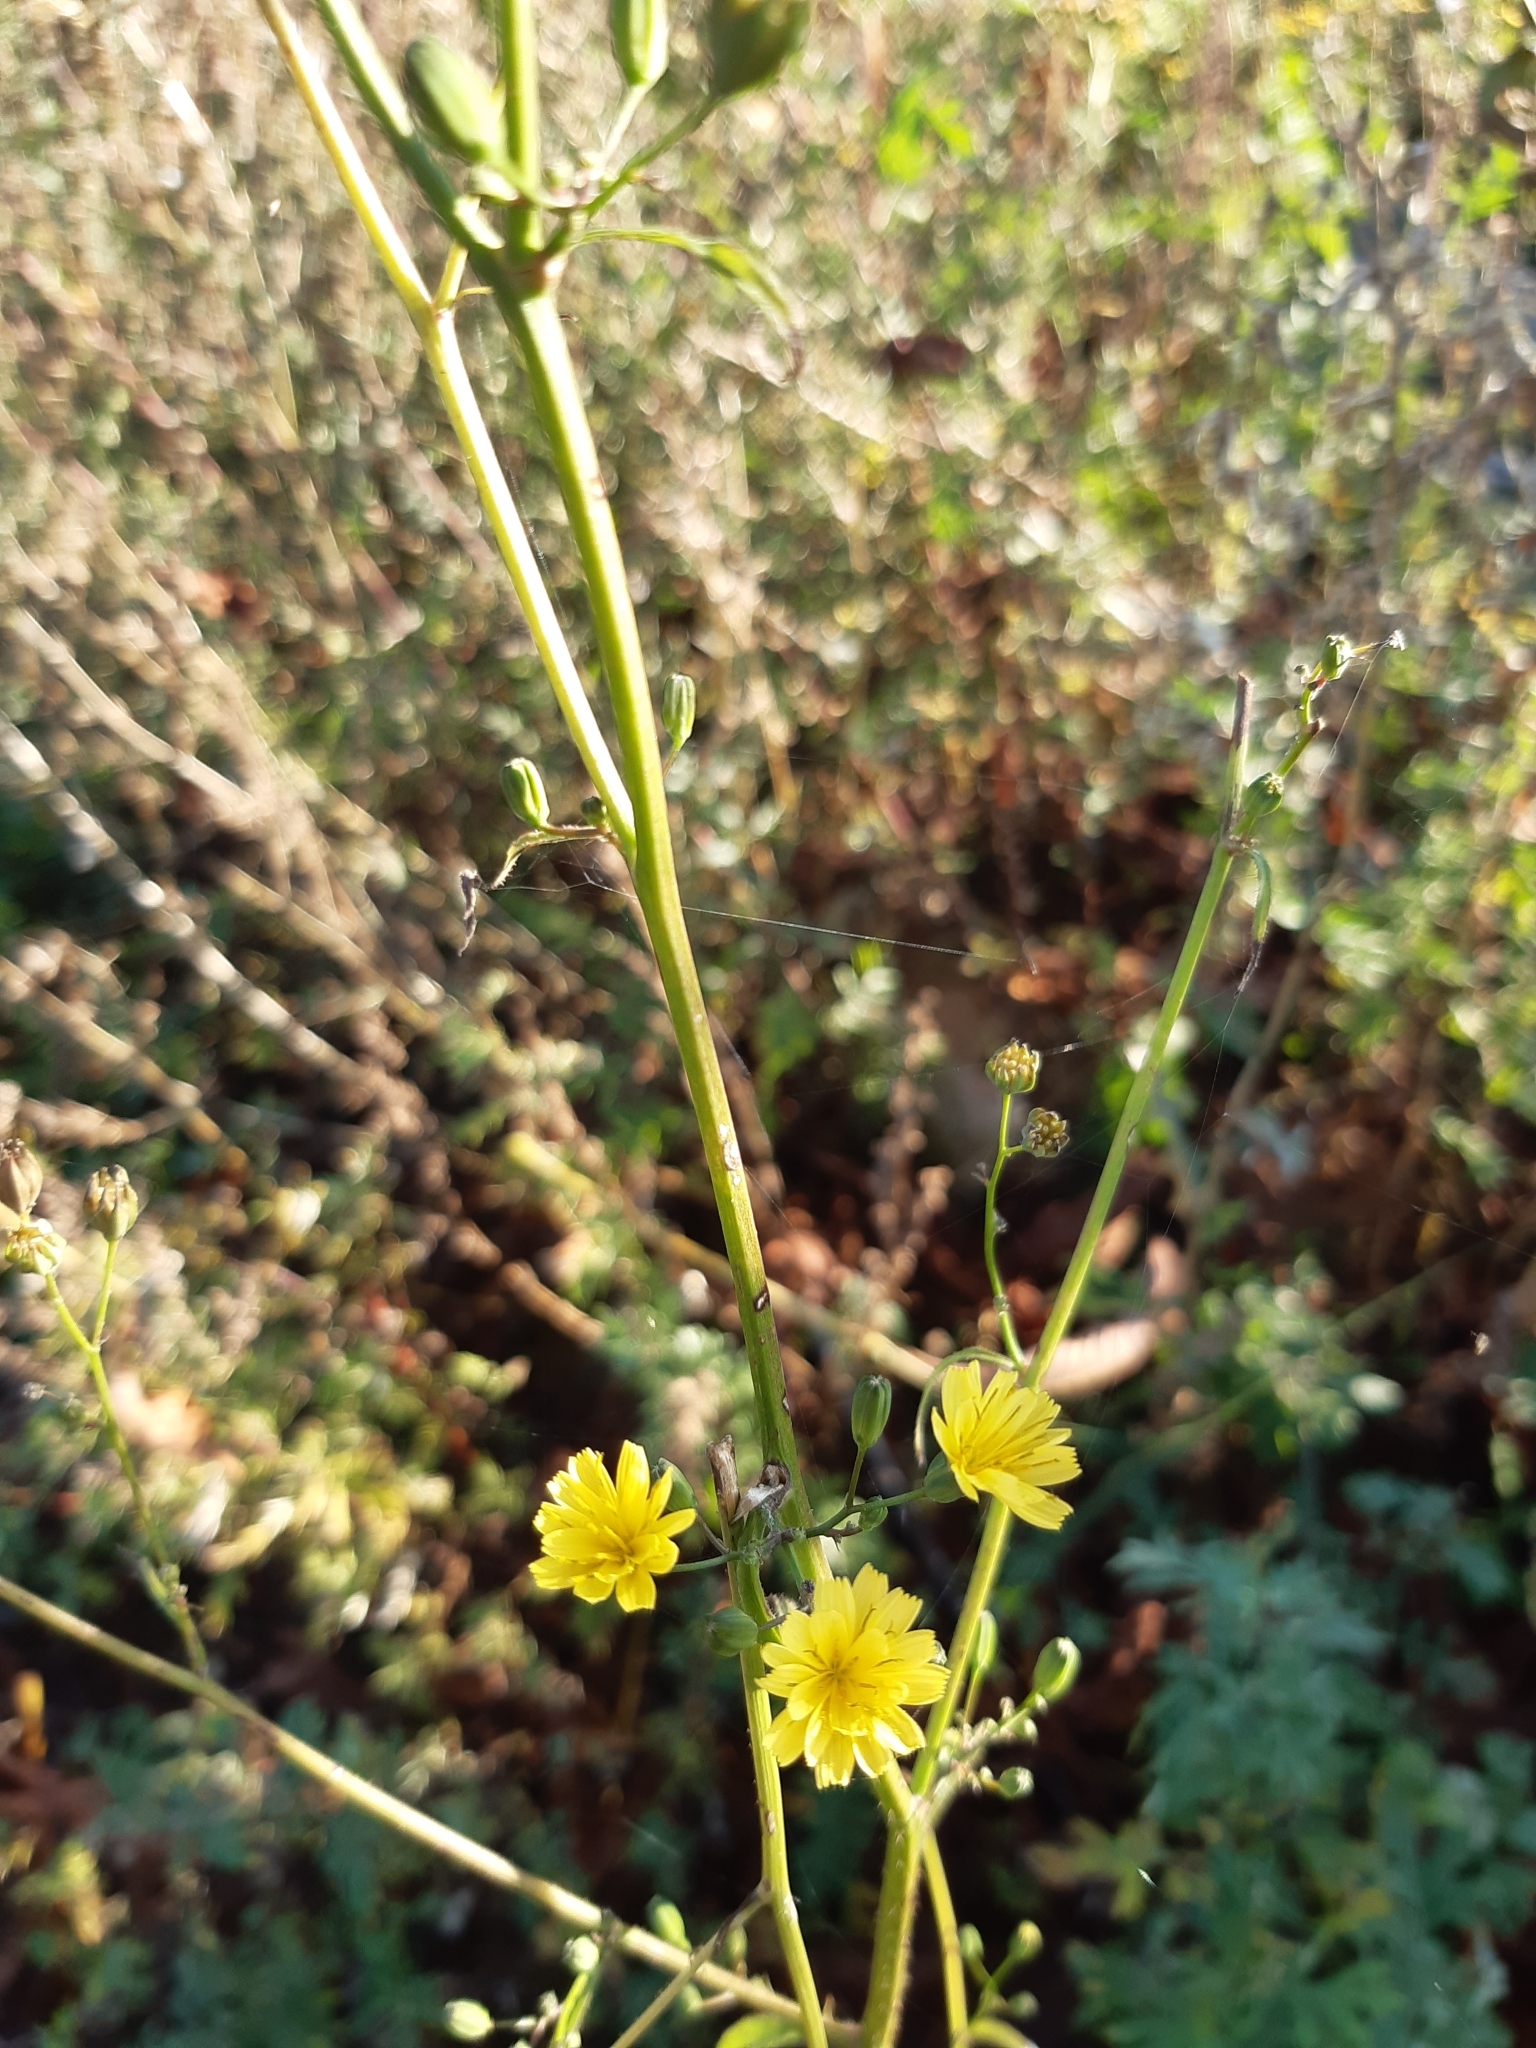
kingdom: Plantae
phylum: Tracheophyta
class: Magnoliopsida
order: Asterales
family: Asteraceae
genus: Lapsana
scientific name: Lapsana communis
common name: Nipplewort
